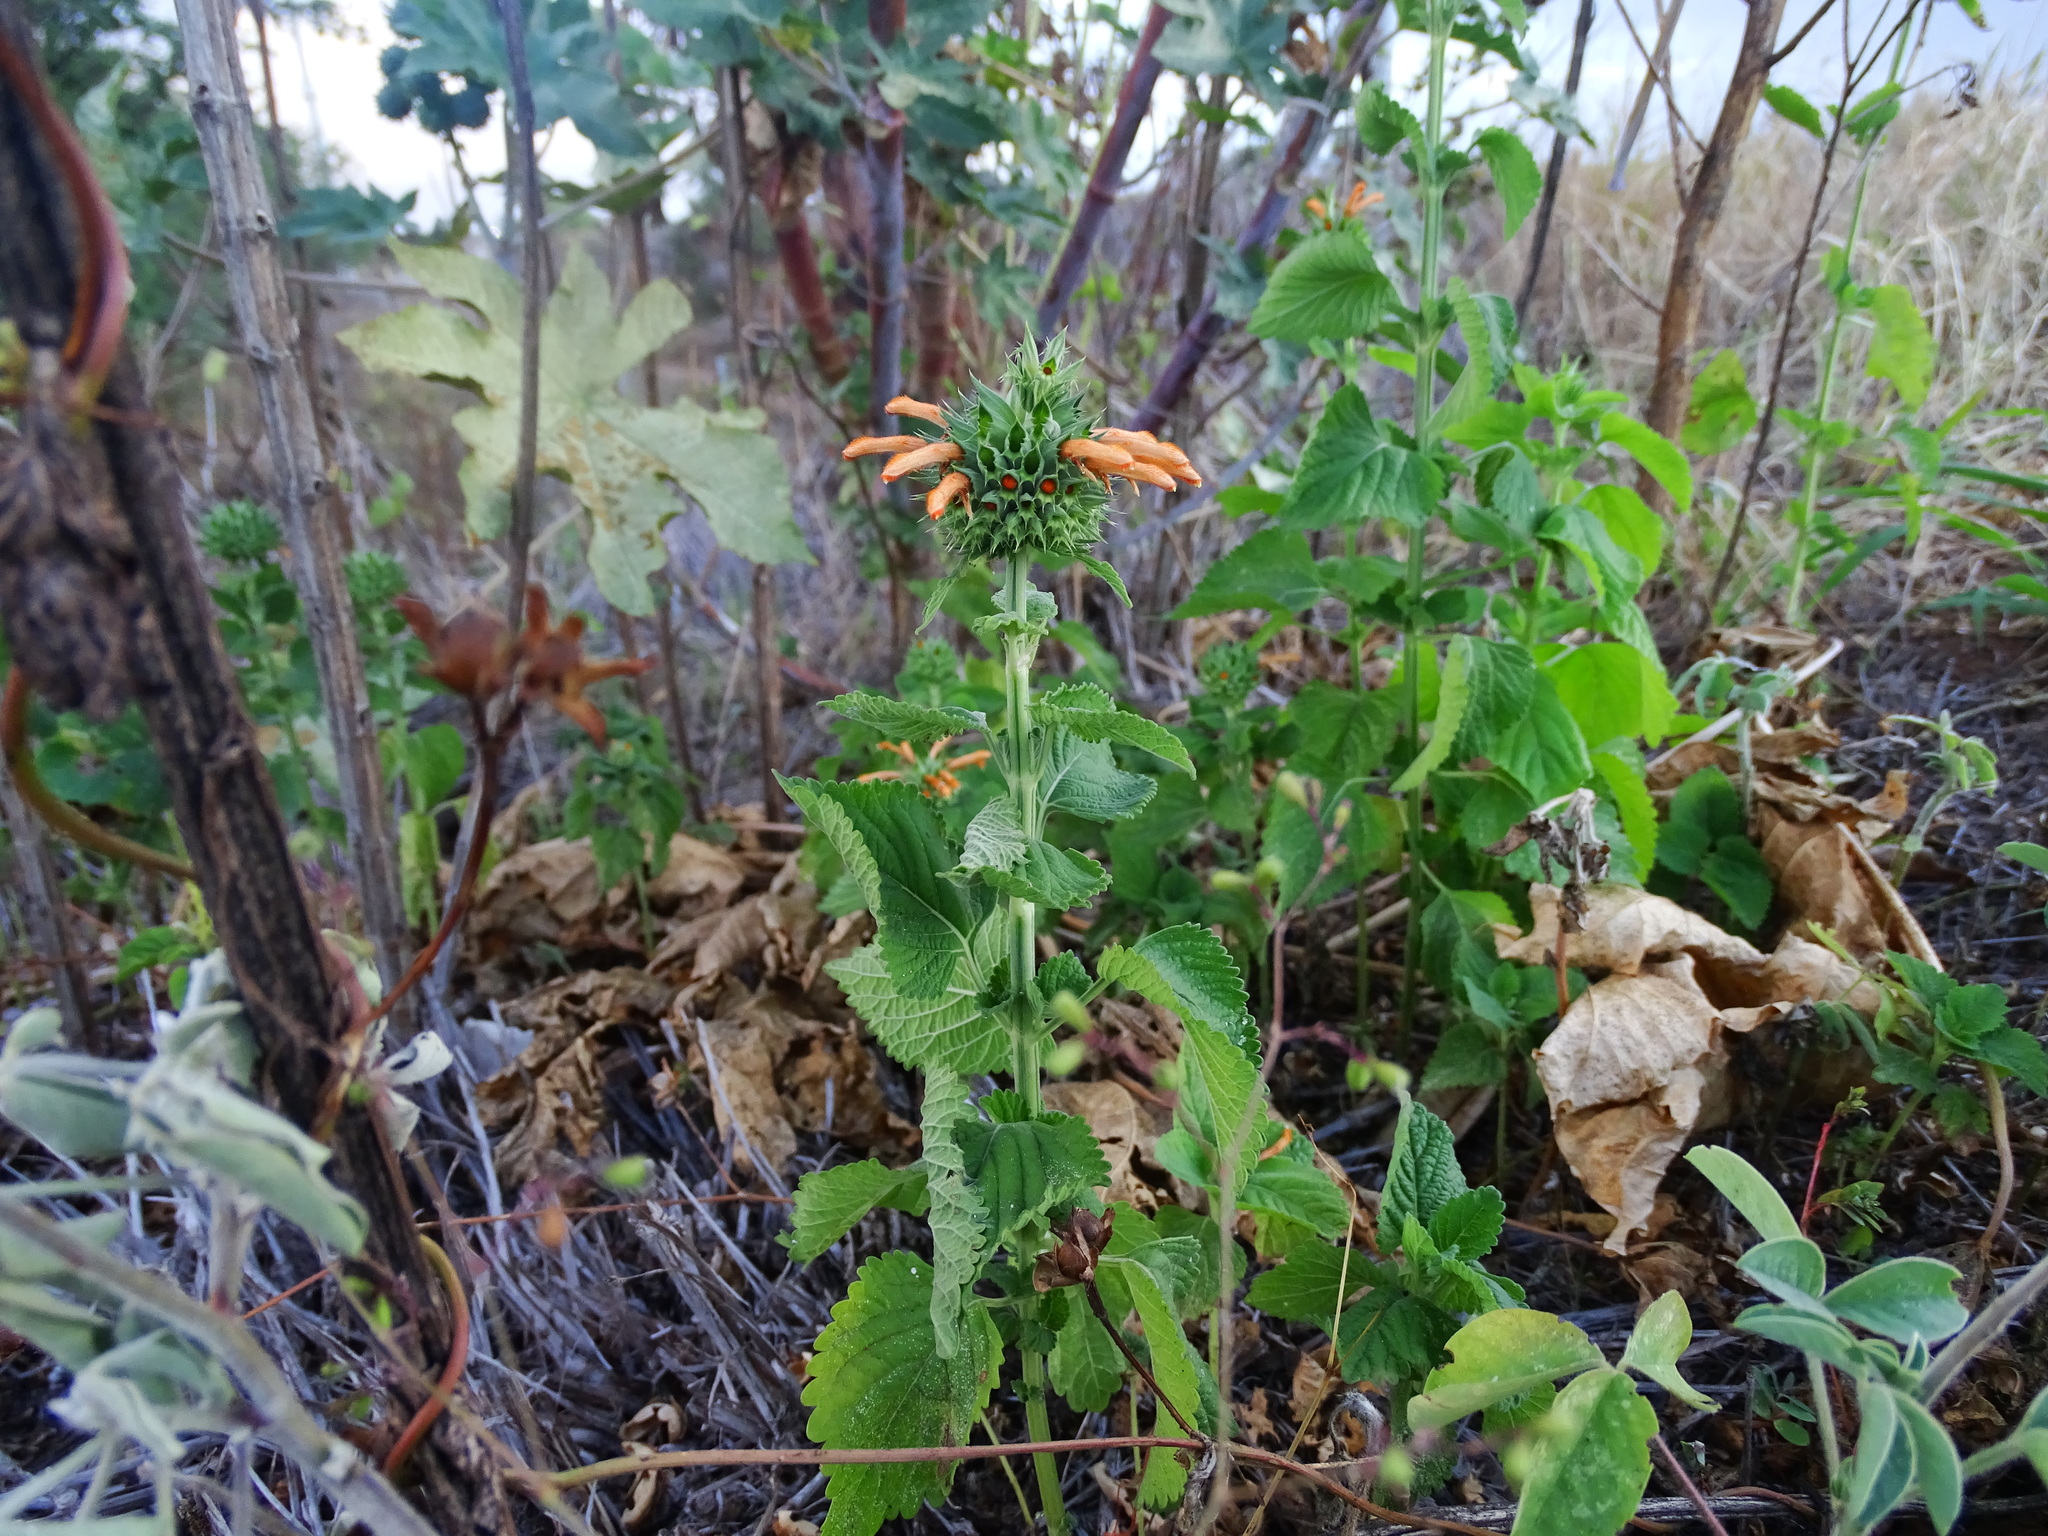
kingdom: Plantae
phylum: Tracheophyta
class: Magnoliopsida
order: Lamiales
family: Lamiaceae
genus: Leonotis
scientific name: Leonotis nepetifolia
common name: Christmas candlestick
